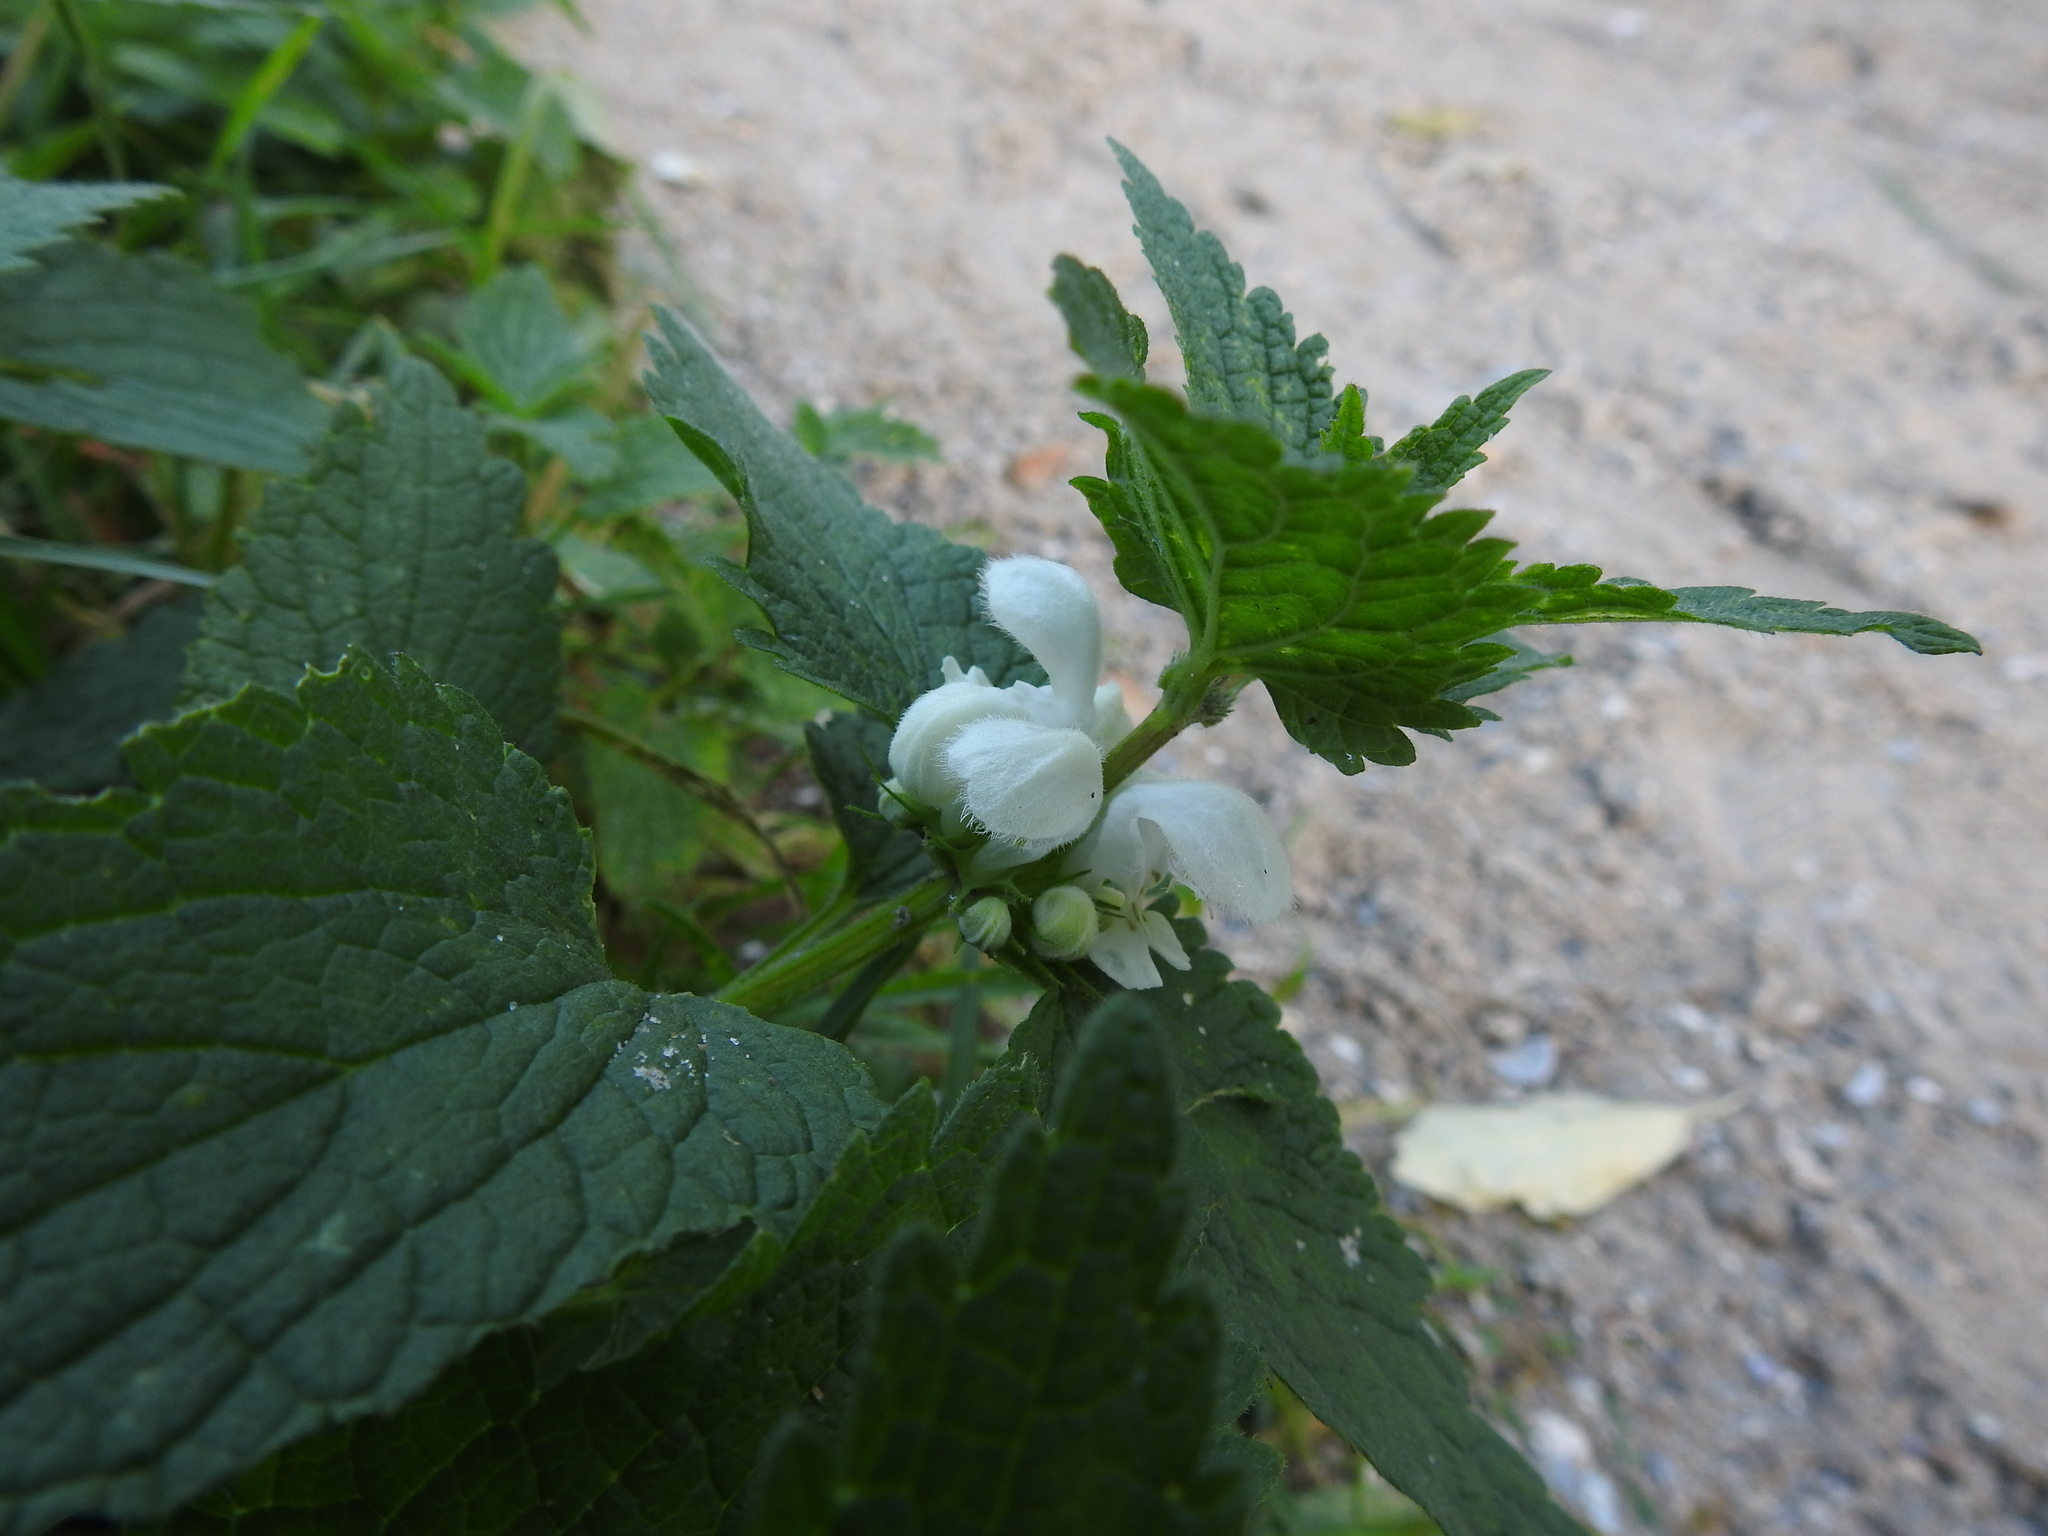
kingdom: Plantae
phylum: Tracheophyta
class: Magnoliopsida
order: Lamiales
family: Lamiaceae
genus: Lamium
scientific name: Lamium album
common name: White dead-nettle
